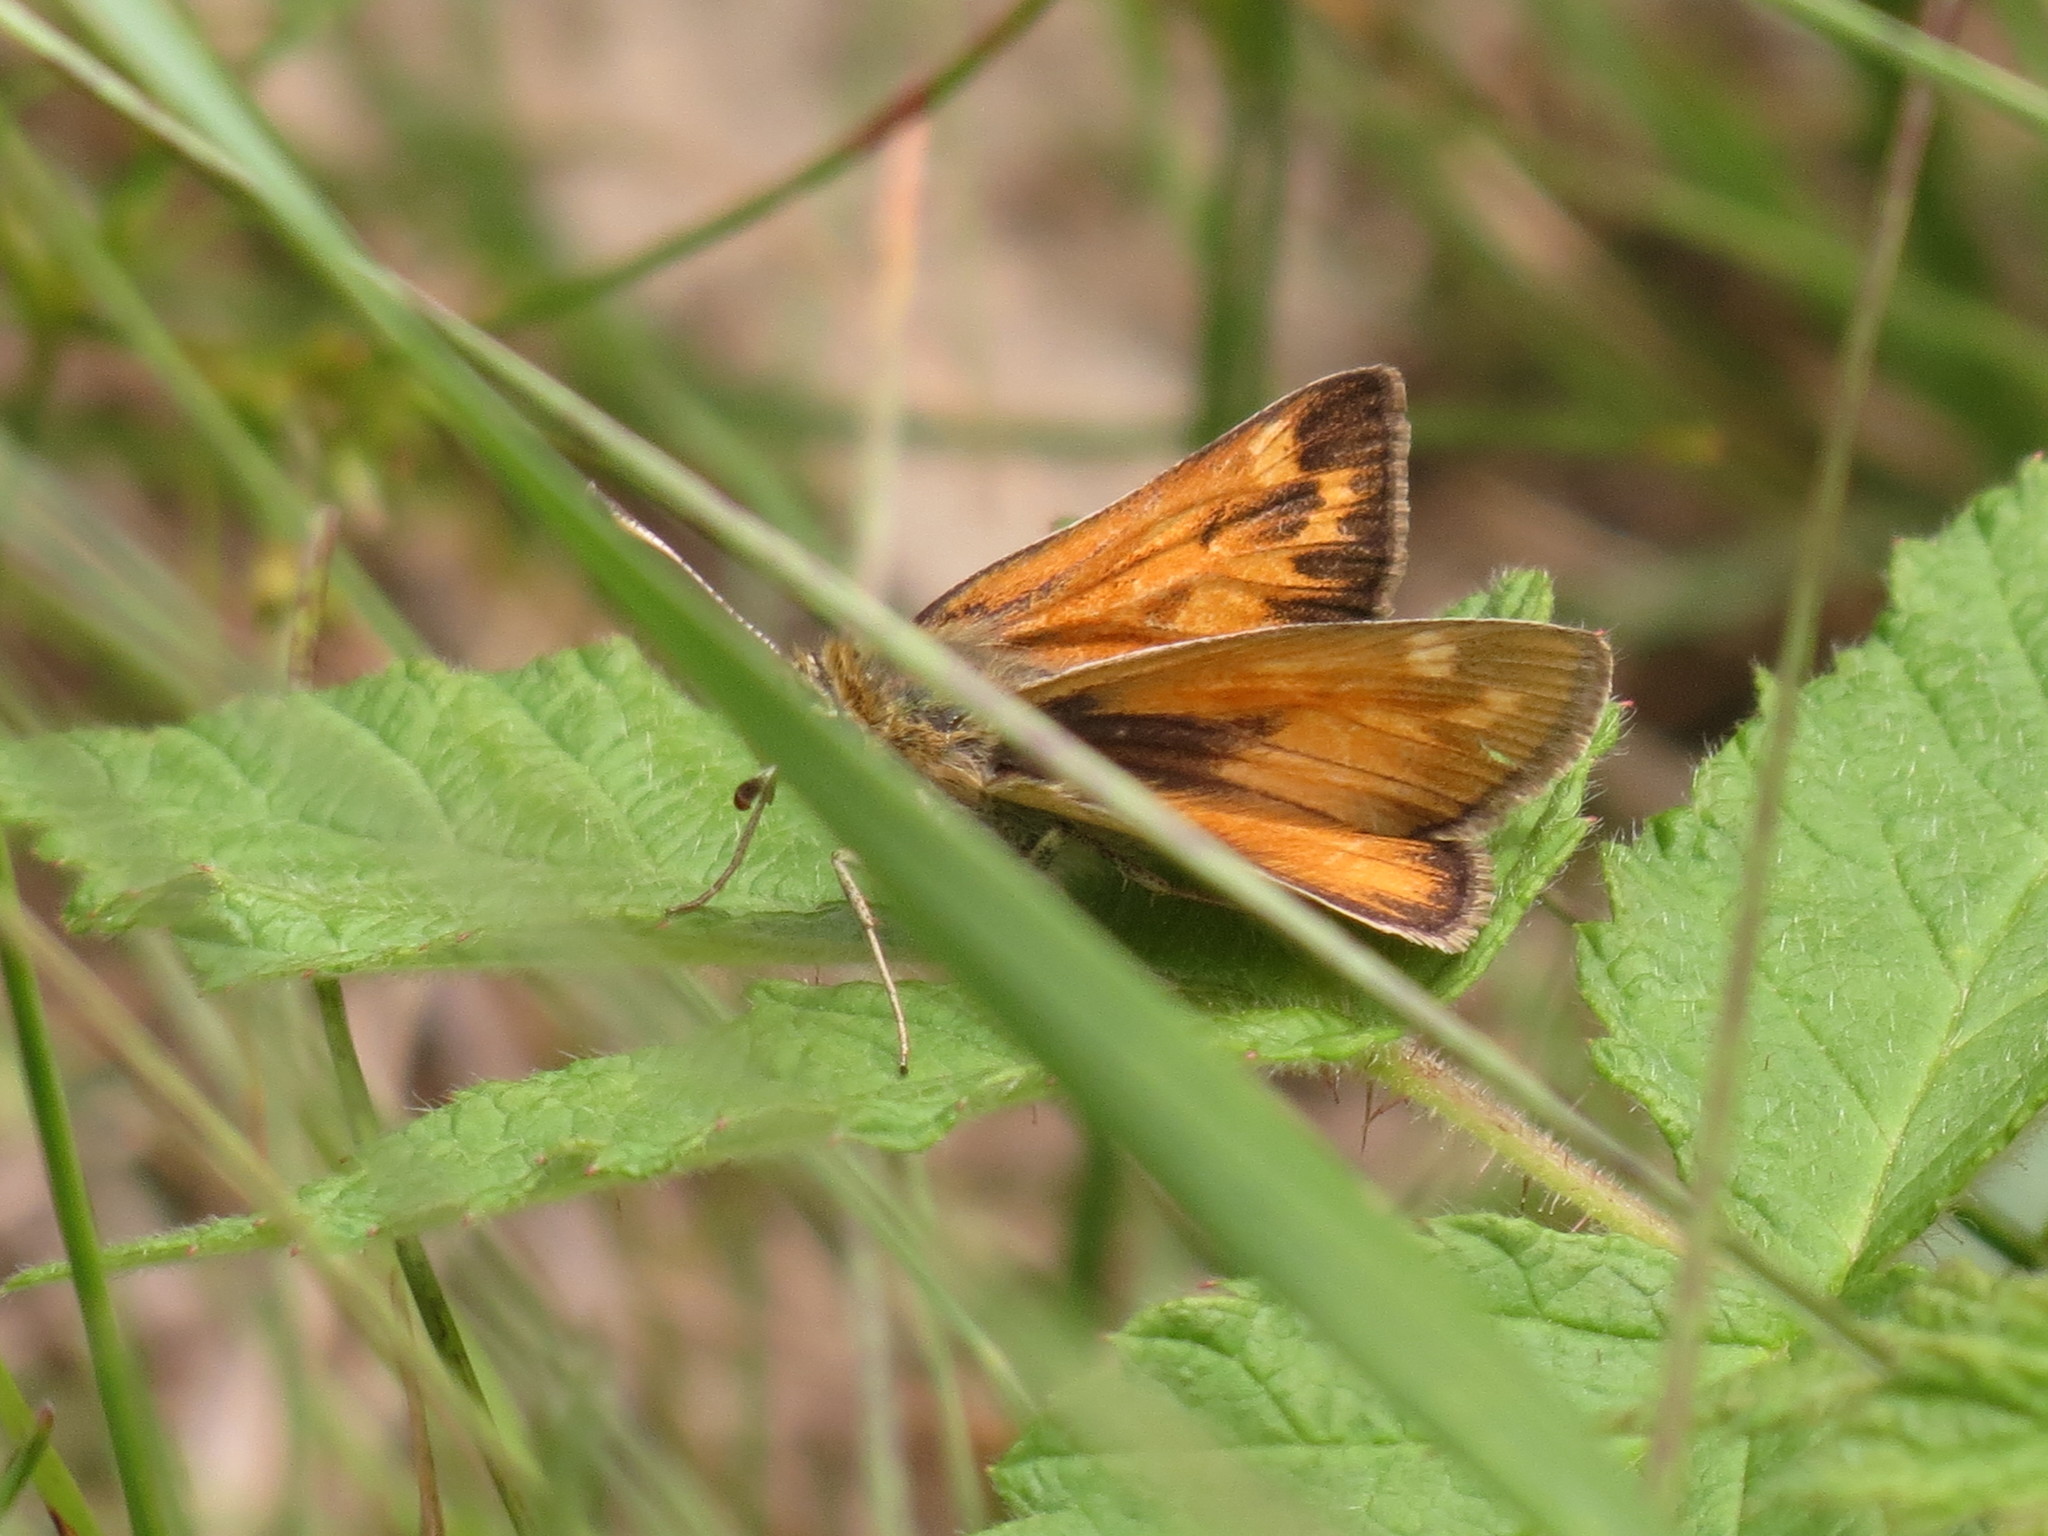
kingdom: Animalia
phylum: Arthropoda
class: Insecta
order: Lepidoptera
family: Hesperiidae
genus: Hesperia
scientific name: Hesperia sassacus
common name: Indian skipper
